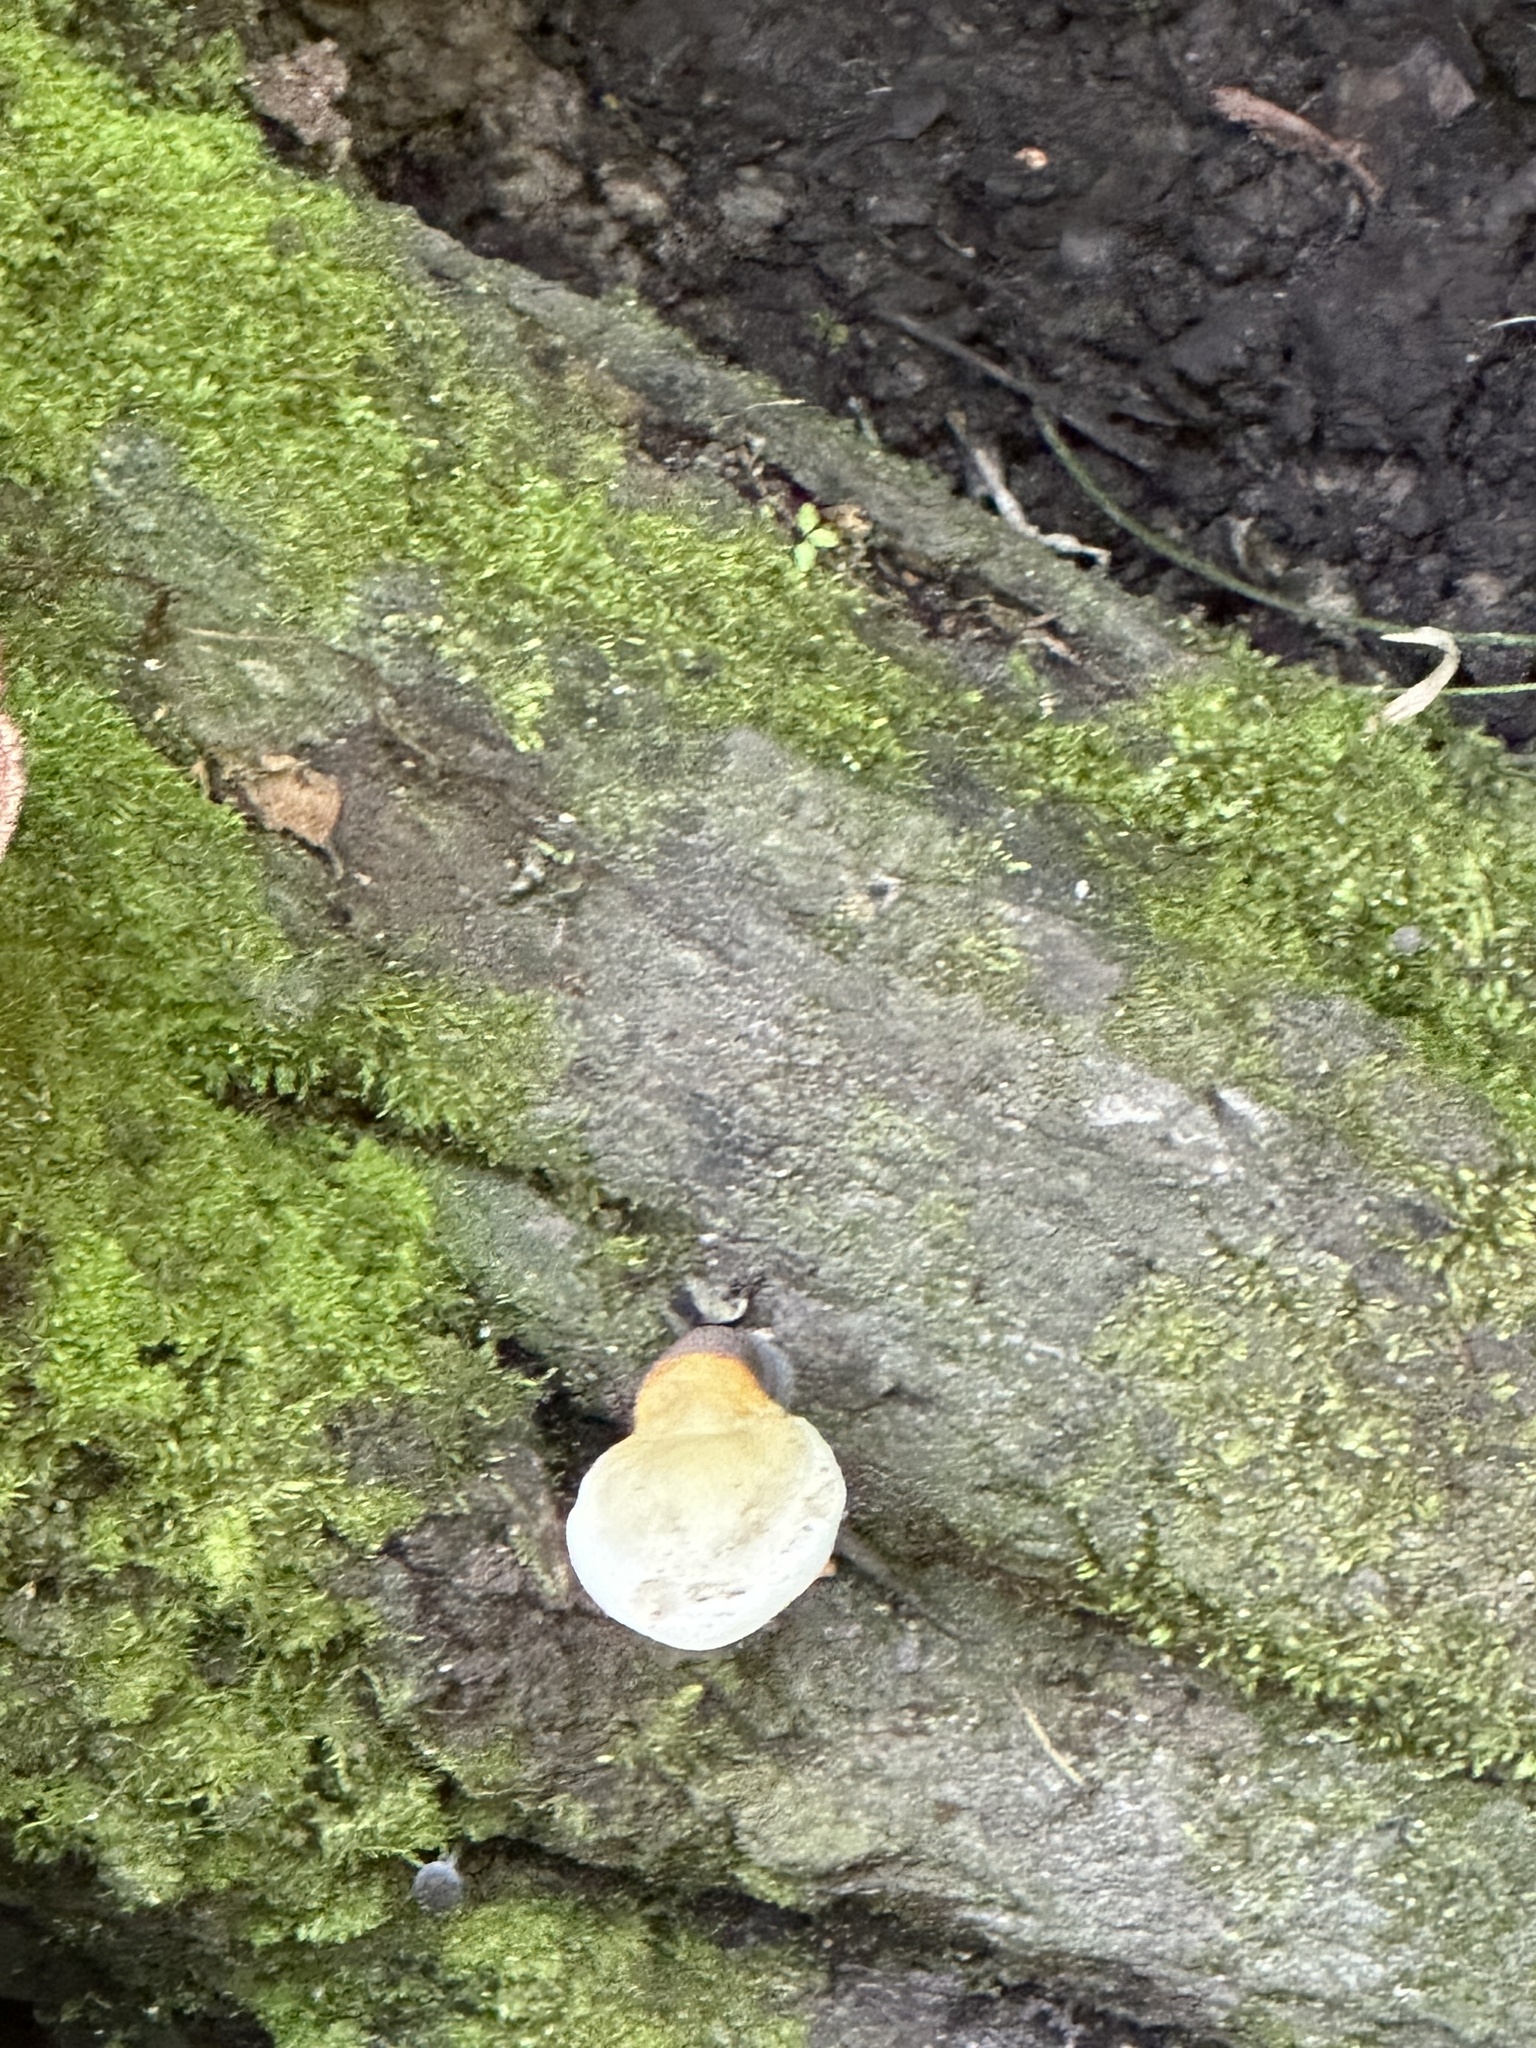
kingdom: Fungi
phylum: Basidiomycota
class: Agaricomycetes
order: Polyporales
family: Polyporaceae
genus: Ganoderma
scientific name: Ganoderma curtisii
